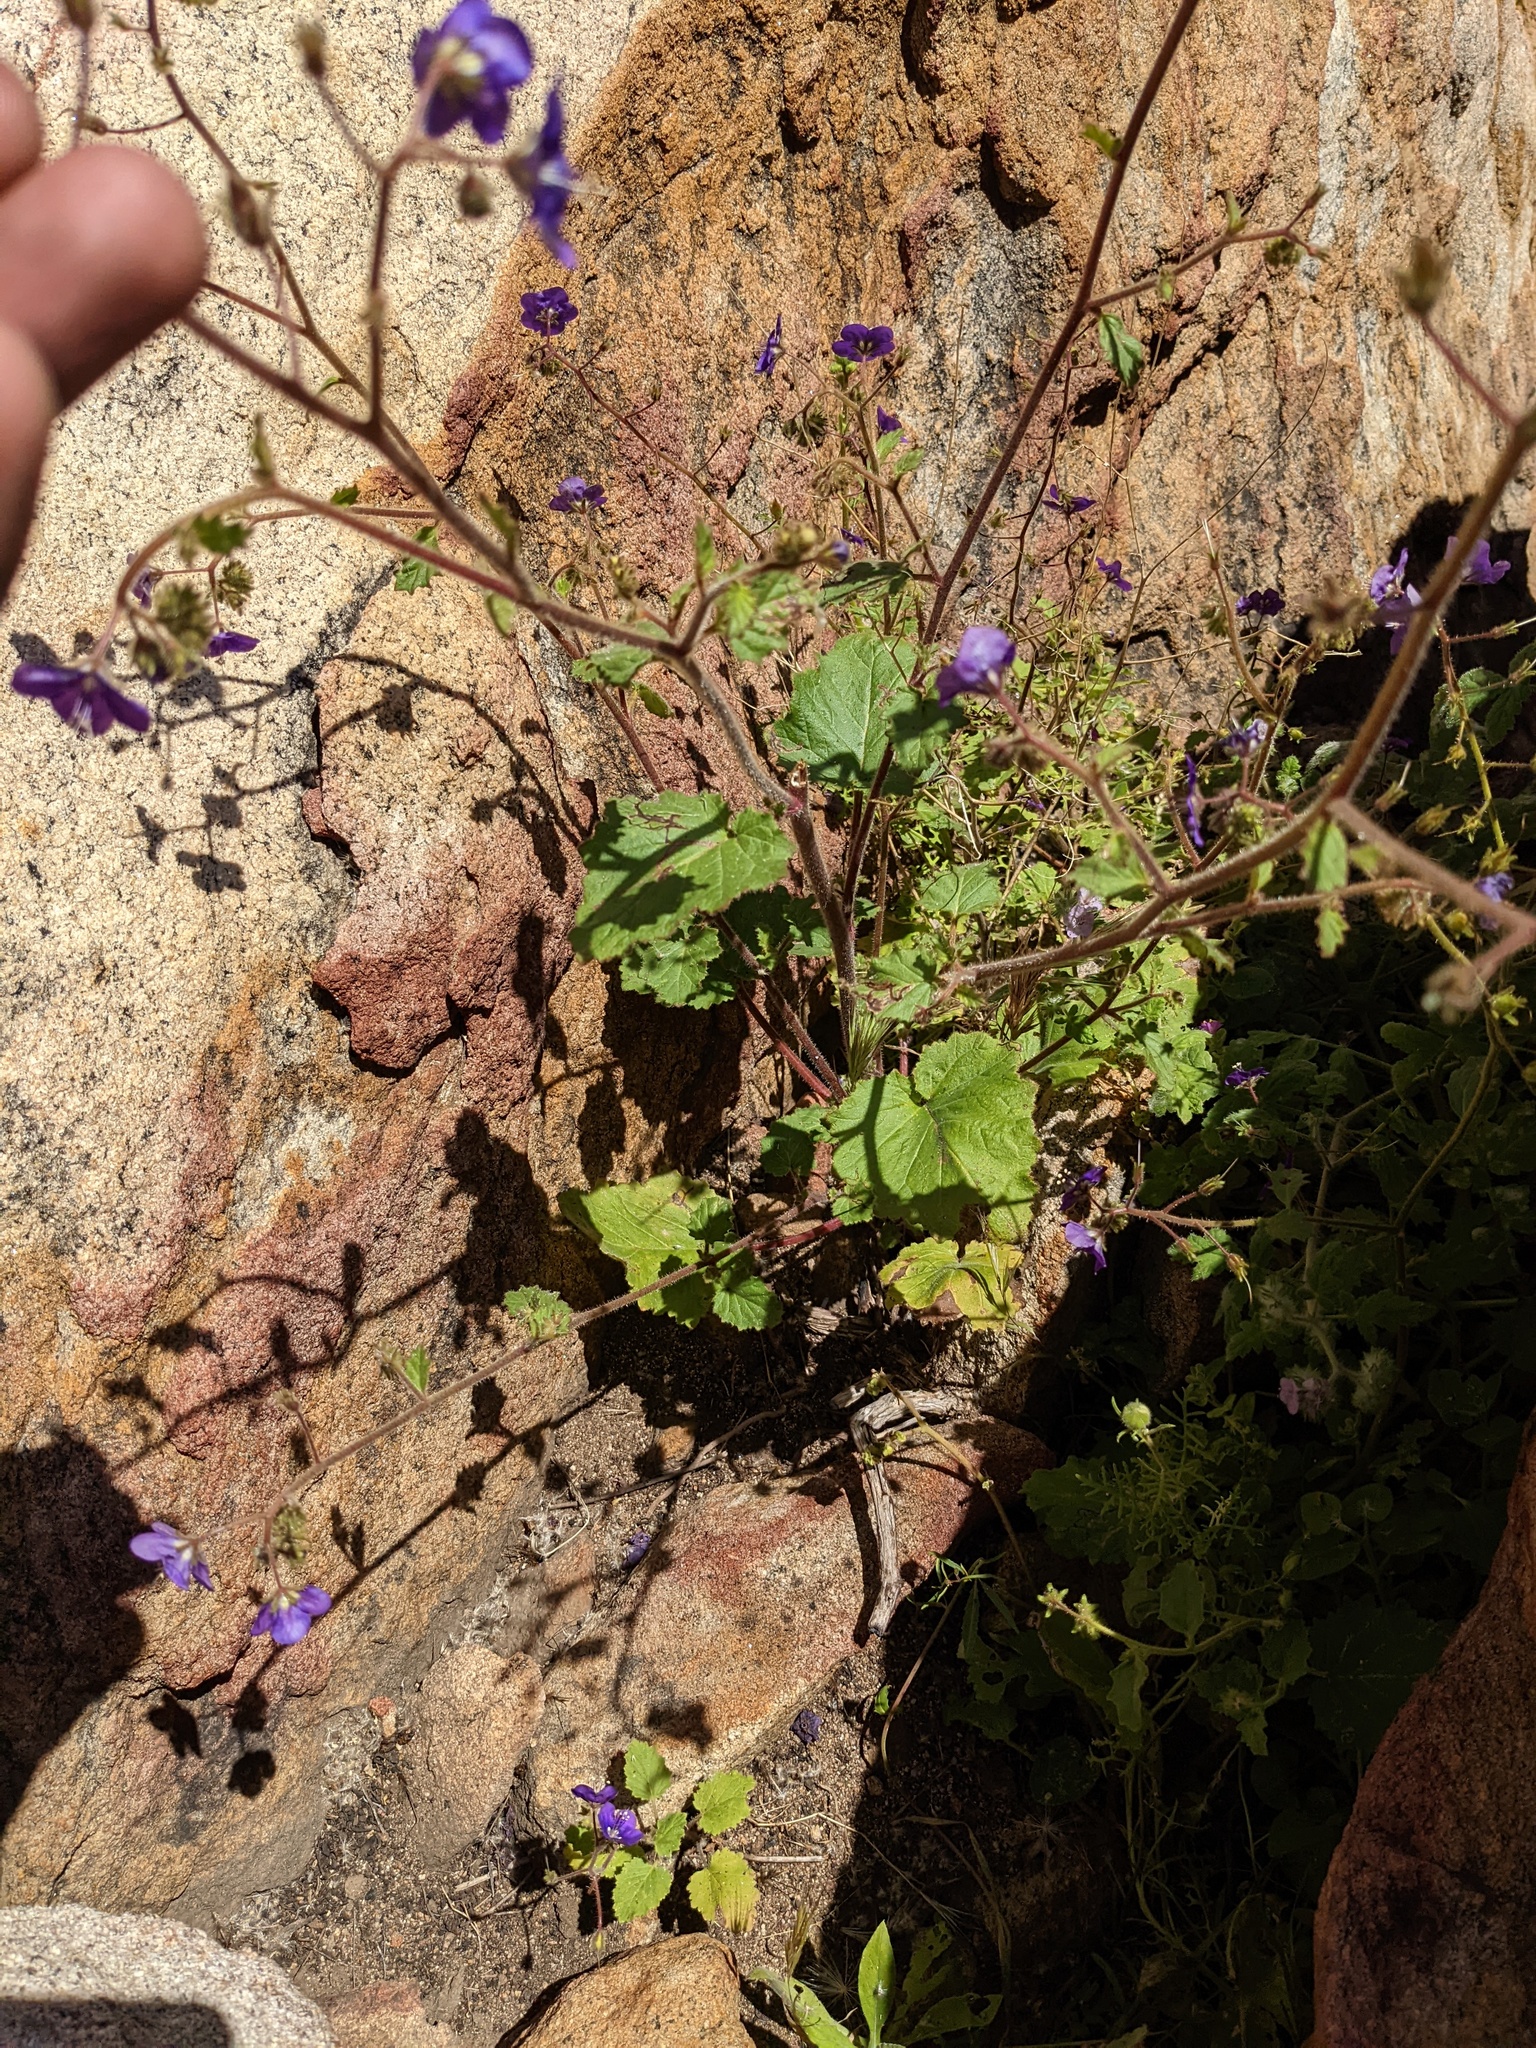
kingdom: Plantae
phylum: Tracheophyta
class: Magnoliopsida
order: Boraginales
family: Hydrophyllaceae
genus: Phacelia
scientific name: Phacelia parryi
